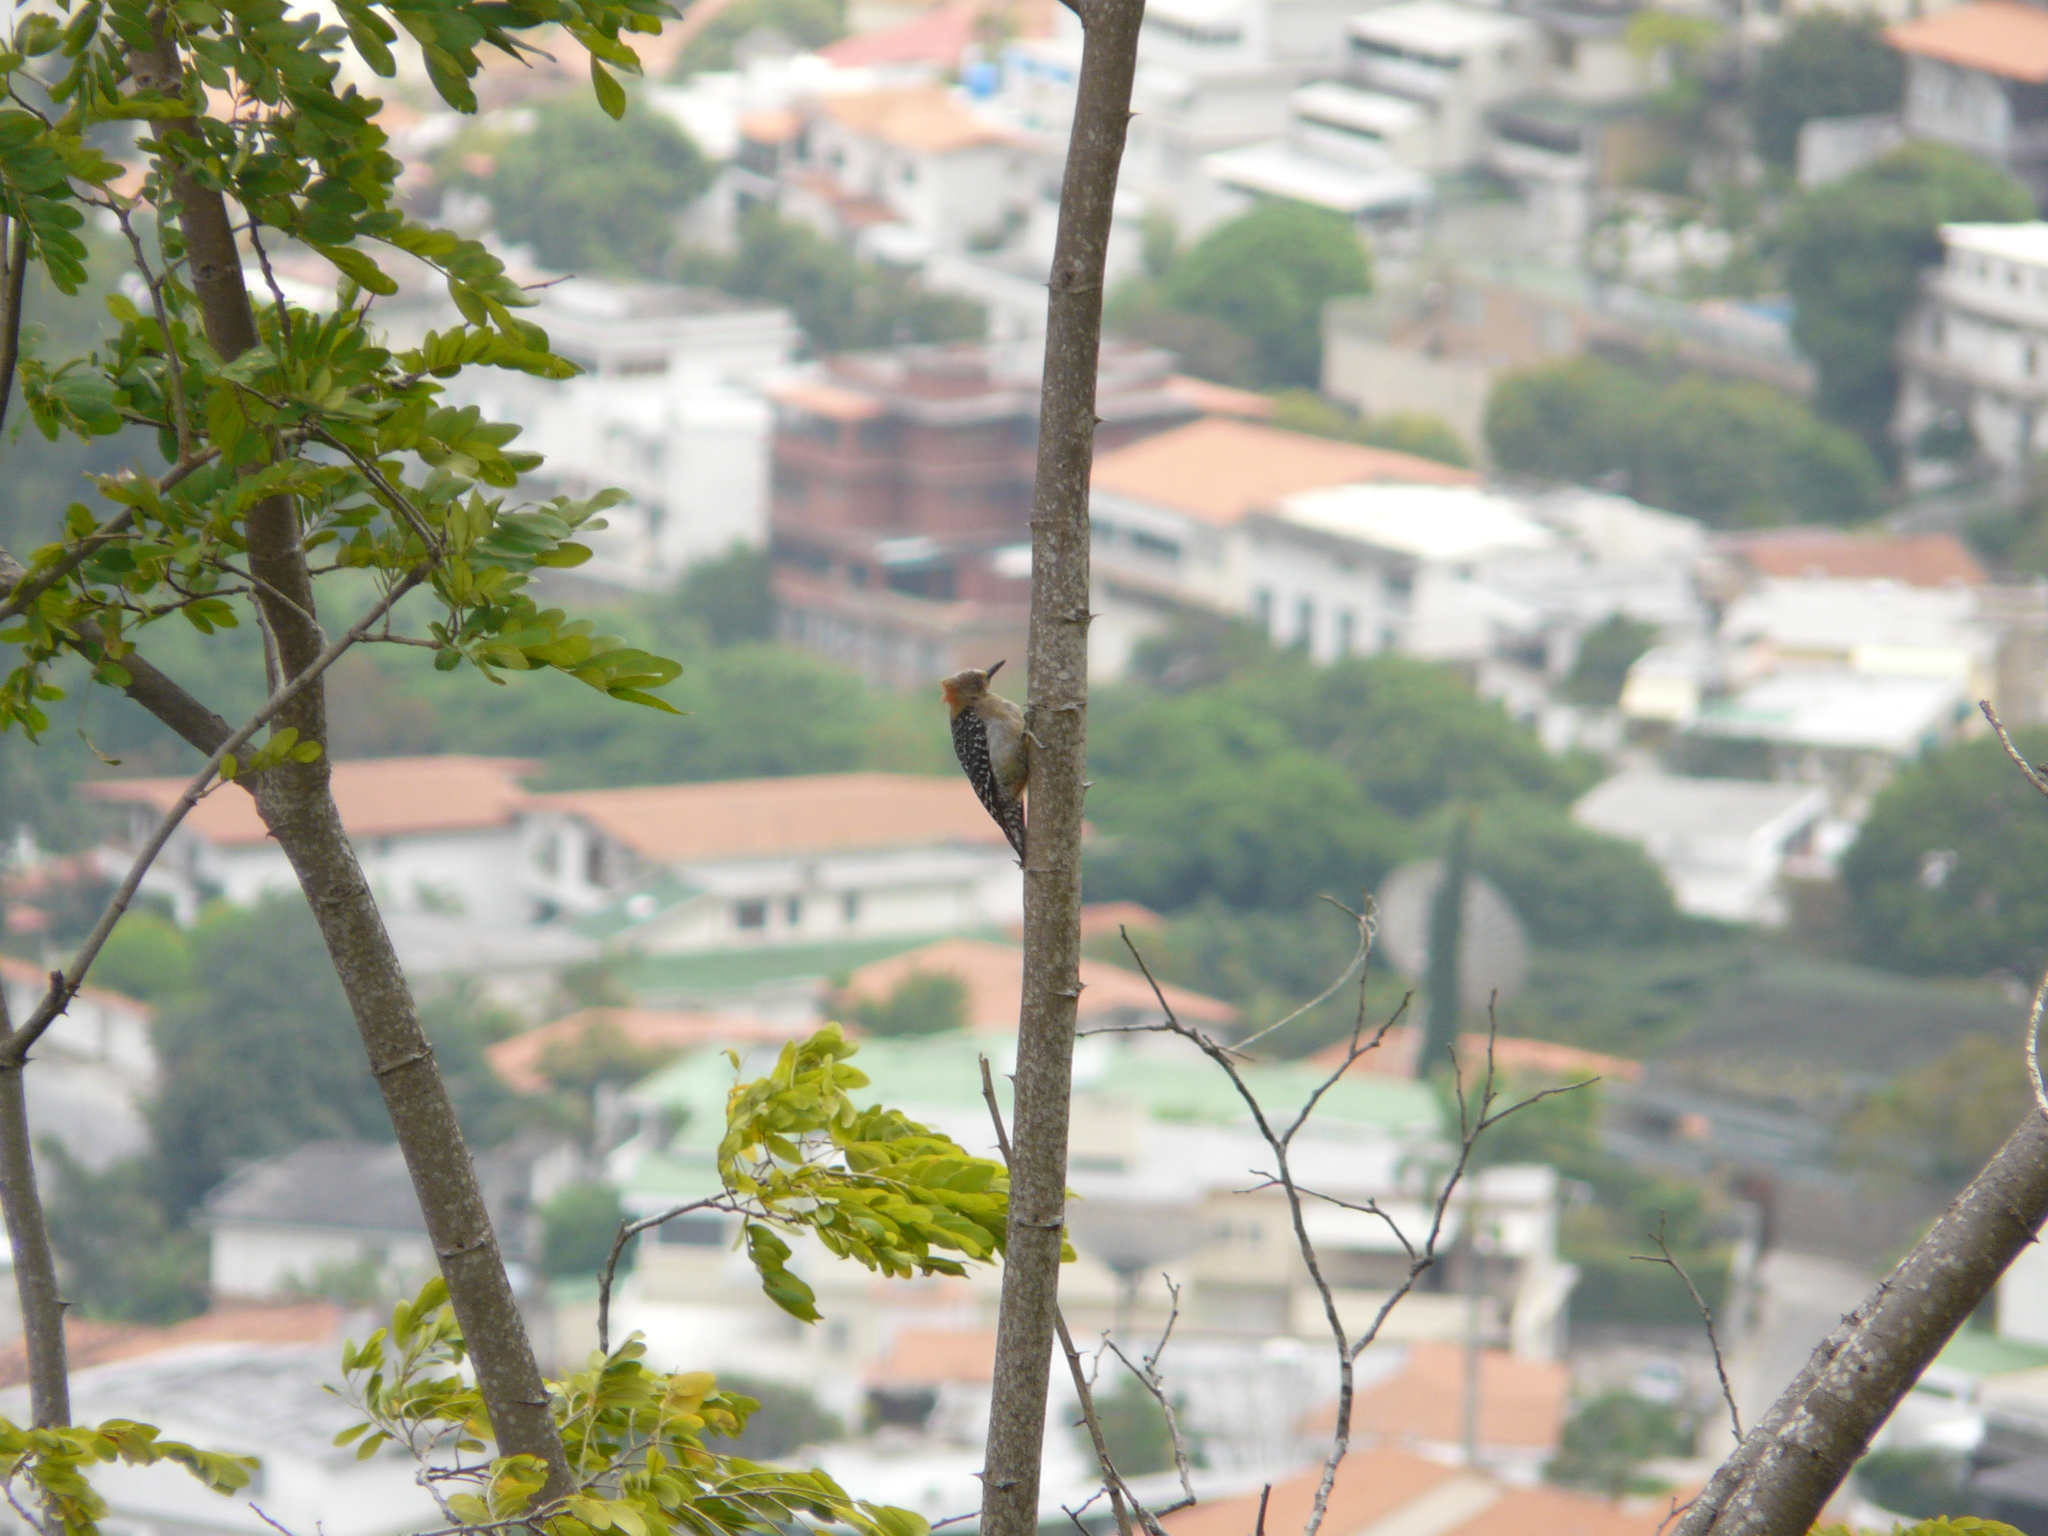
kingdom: Animalia
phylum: Chordata
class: Aves
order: Piciformes
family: Picidae
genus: Melanerpes
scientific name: Melanerpes rubricapillus
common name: Red-crowned woodpecker
